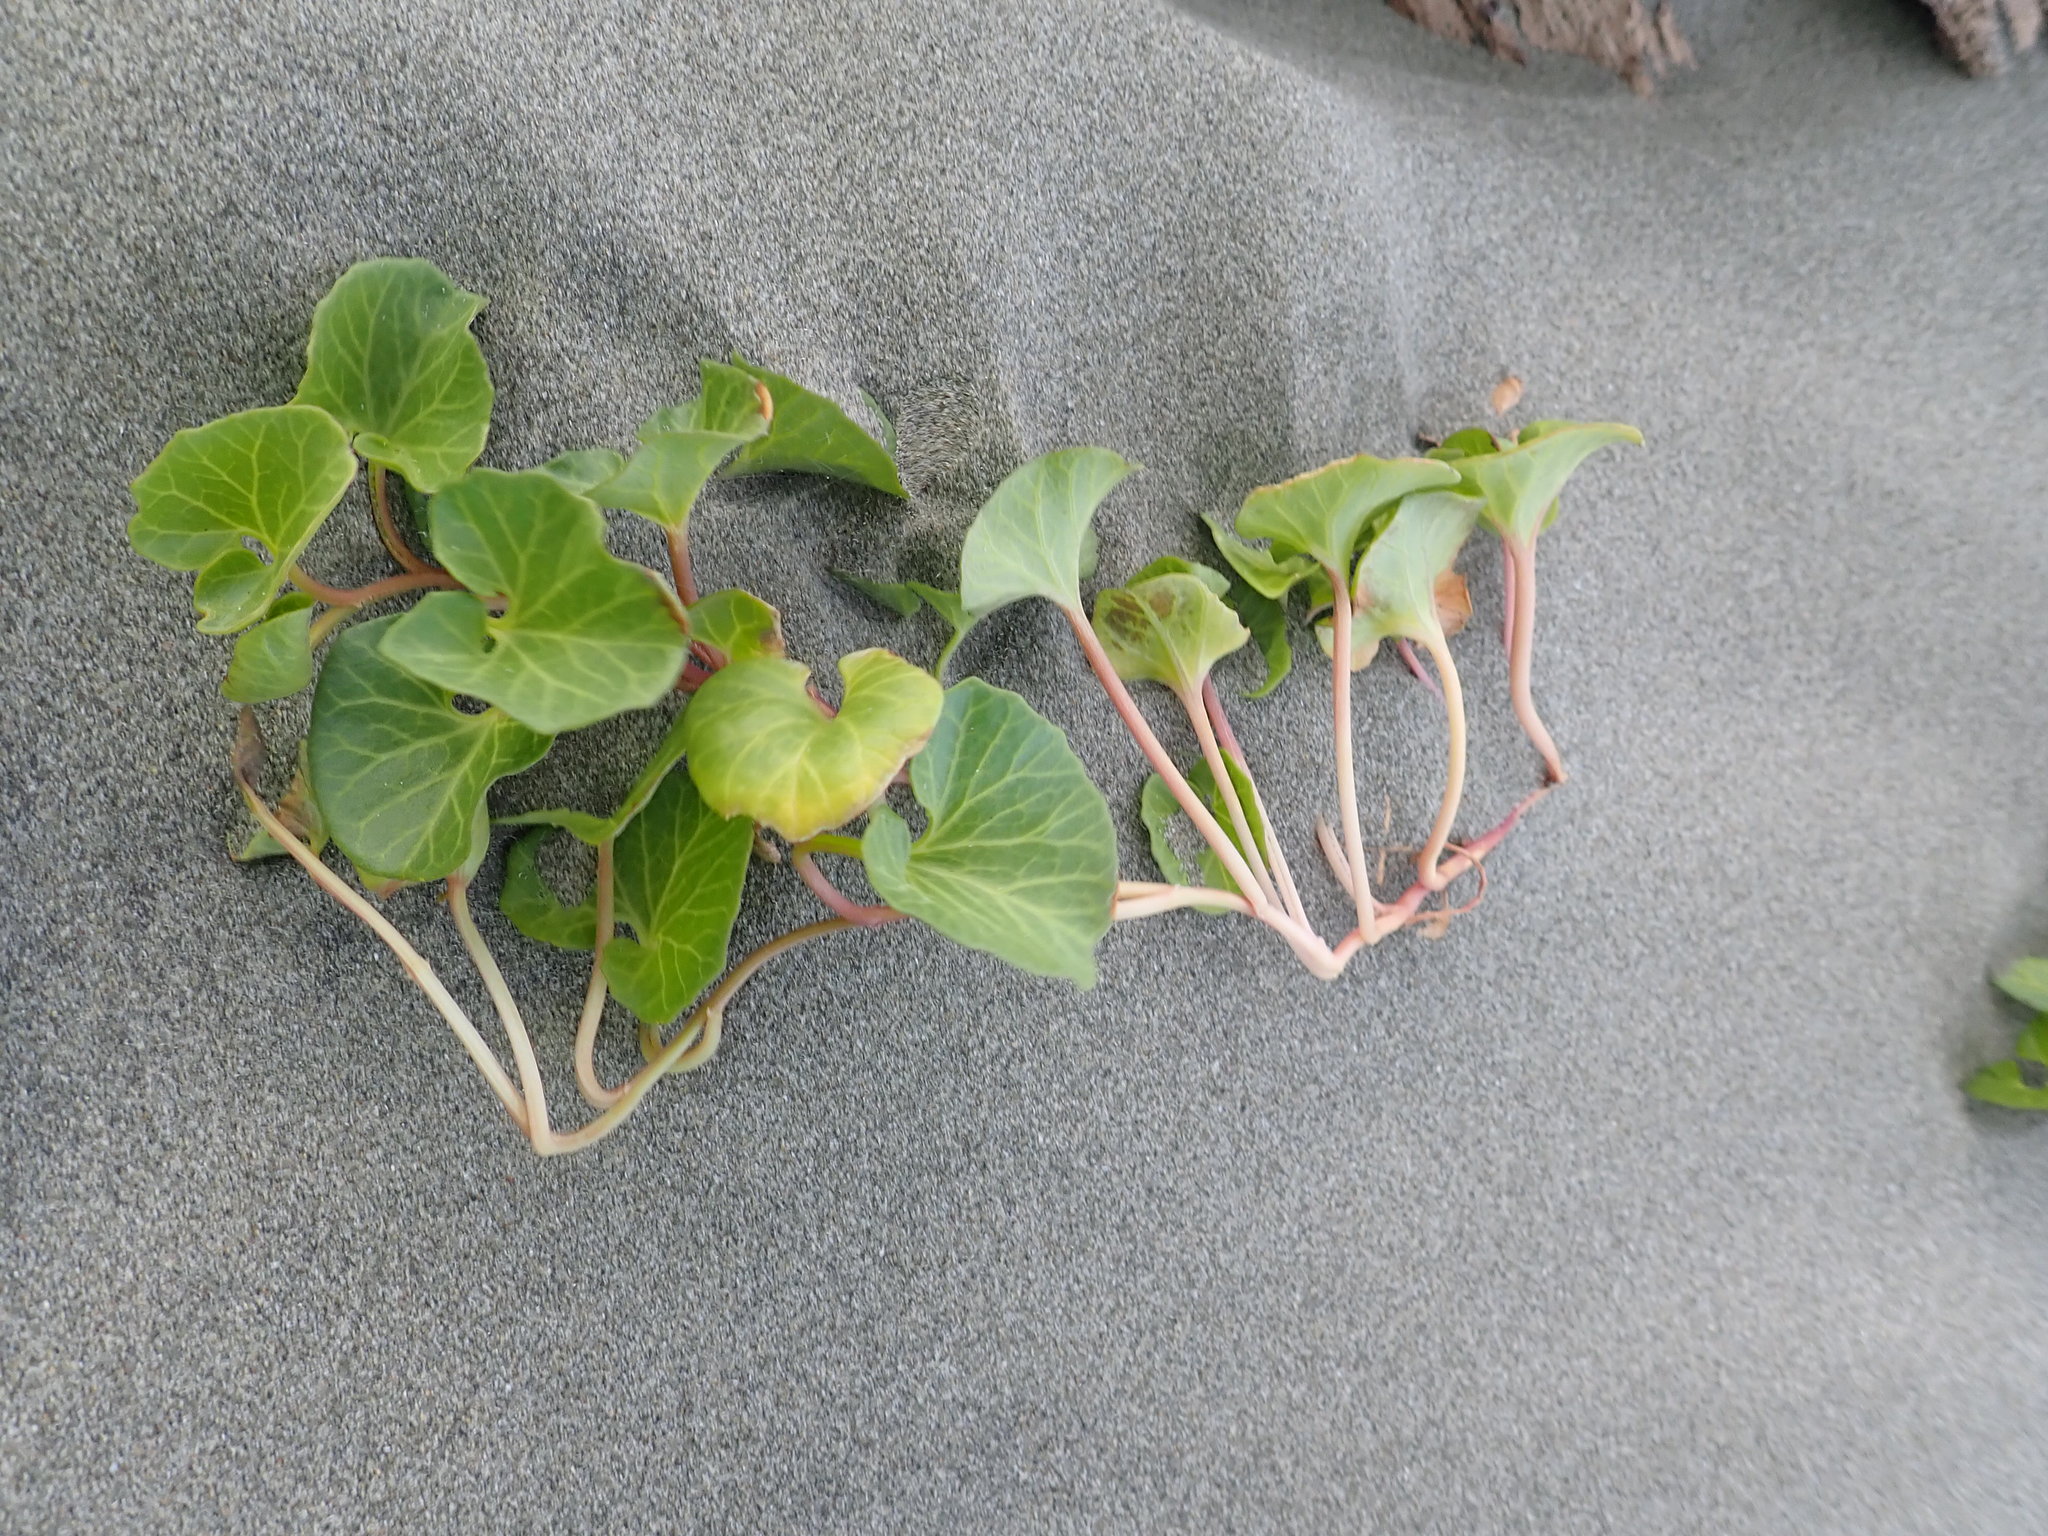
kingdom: Plantae
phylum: Tracheophyta
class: Magnoliopsida
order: Solanales
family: Convolvulaceae
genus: Calystegia
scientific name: Calystegia soldanella
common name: Sea bindweed
